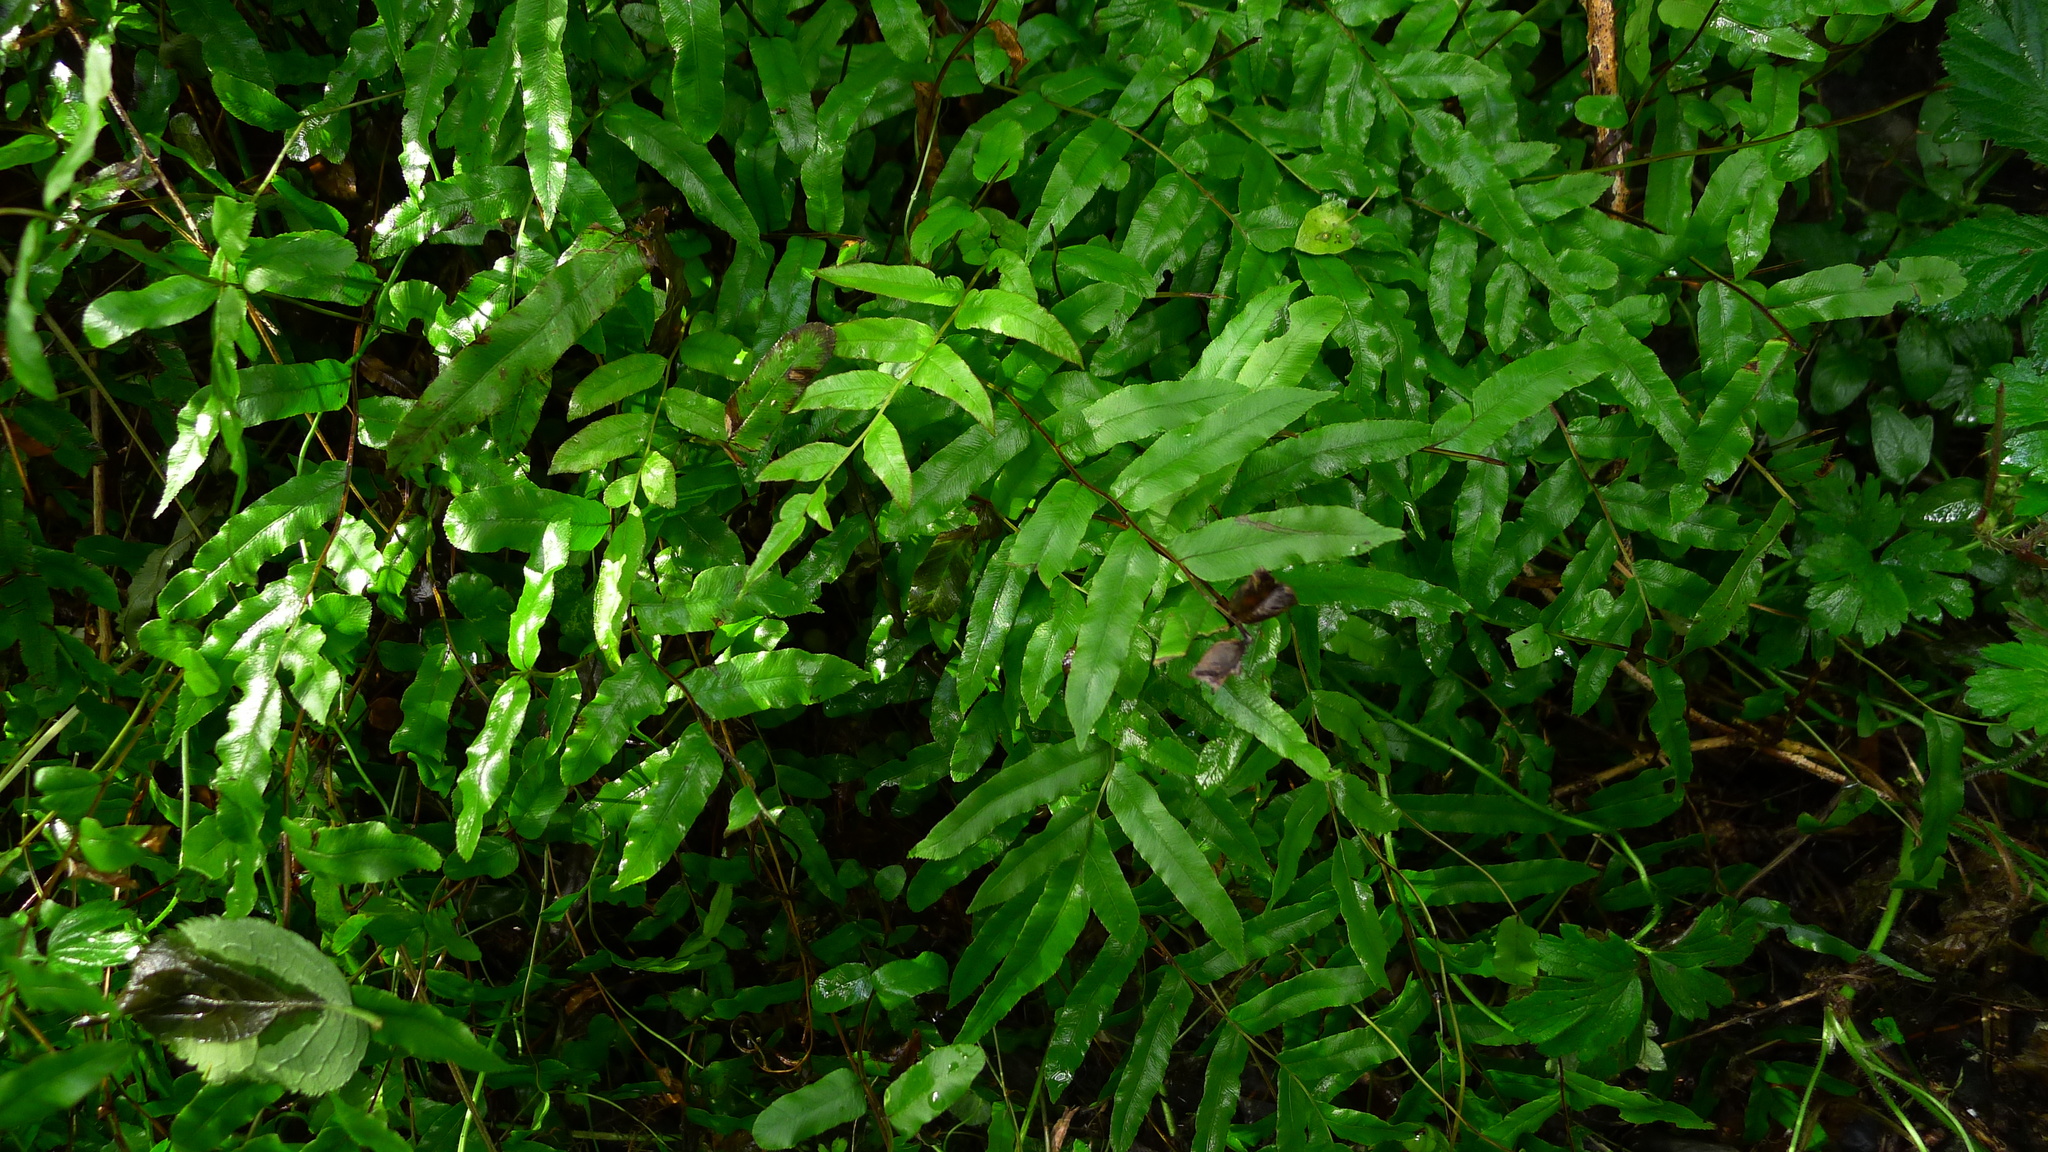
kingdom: Plantae
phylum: Tracheophyta
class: Polypodiopsida
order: Polypodiales
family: Blechnaceae
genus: Parablechnum
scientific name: Parablechnum minus
